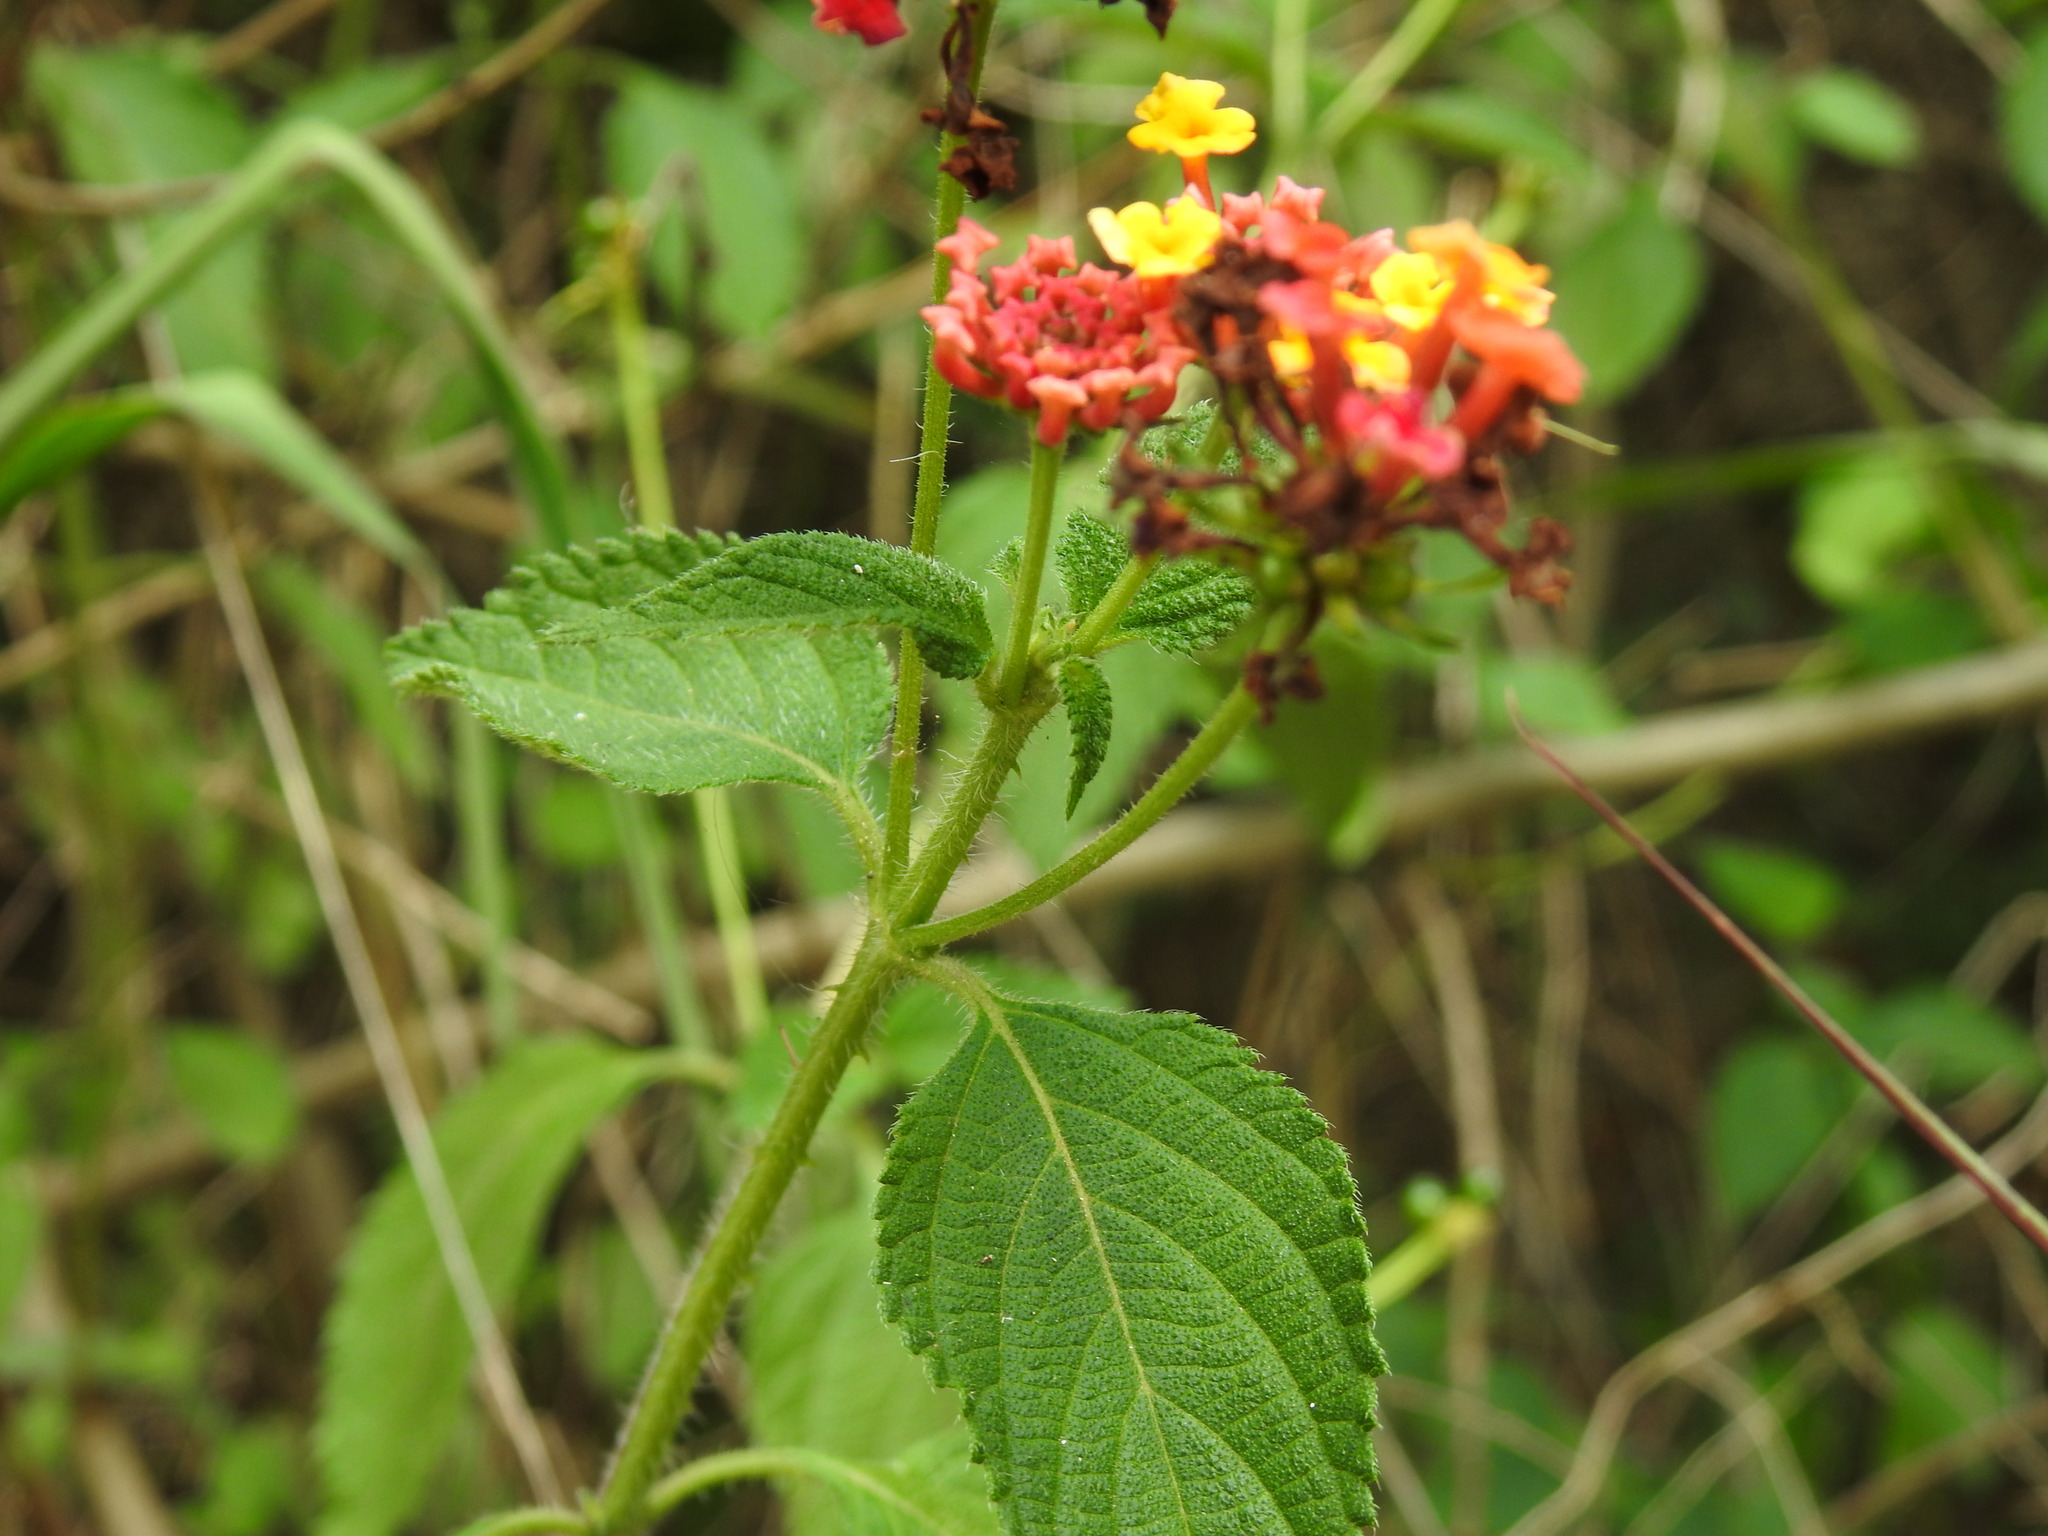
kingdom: Plantae
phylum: Tracheophyta
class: Magnoliopsida
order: Lamiales
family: Verbenaceae
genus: Lantana
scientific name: Lantana camara
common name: Lantana
